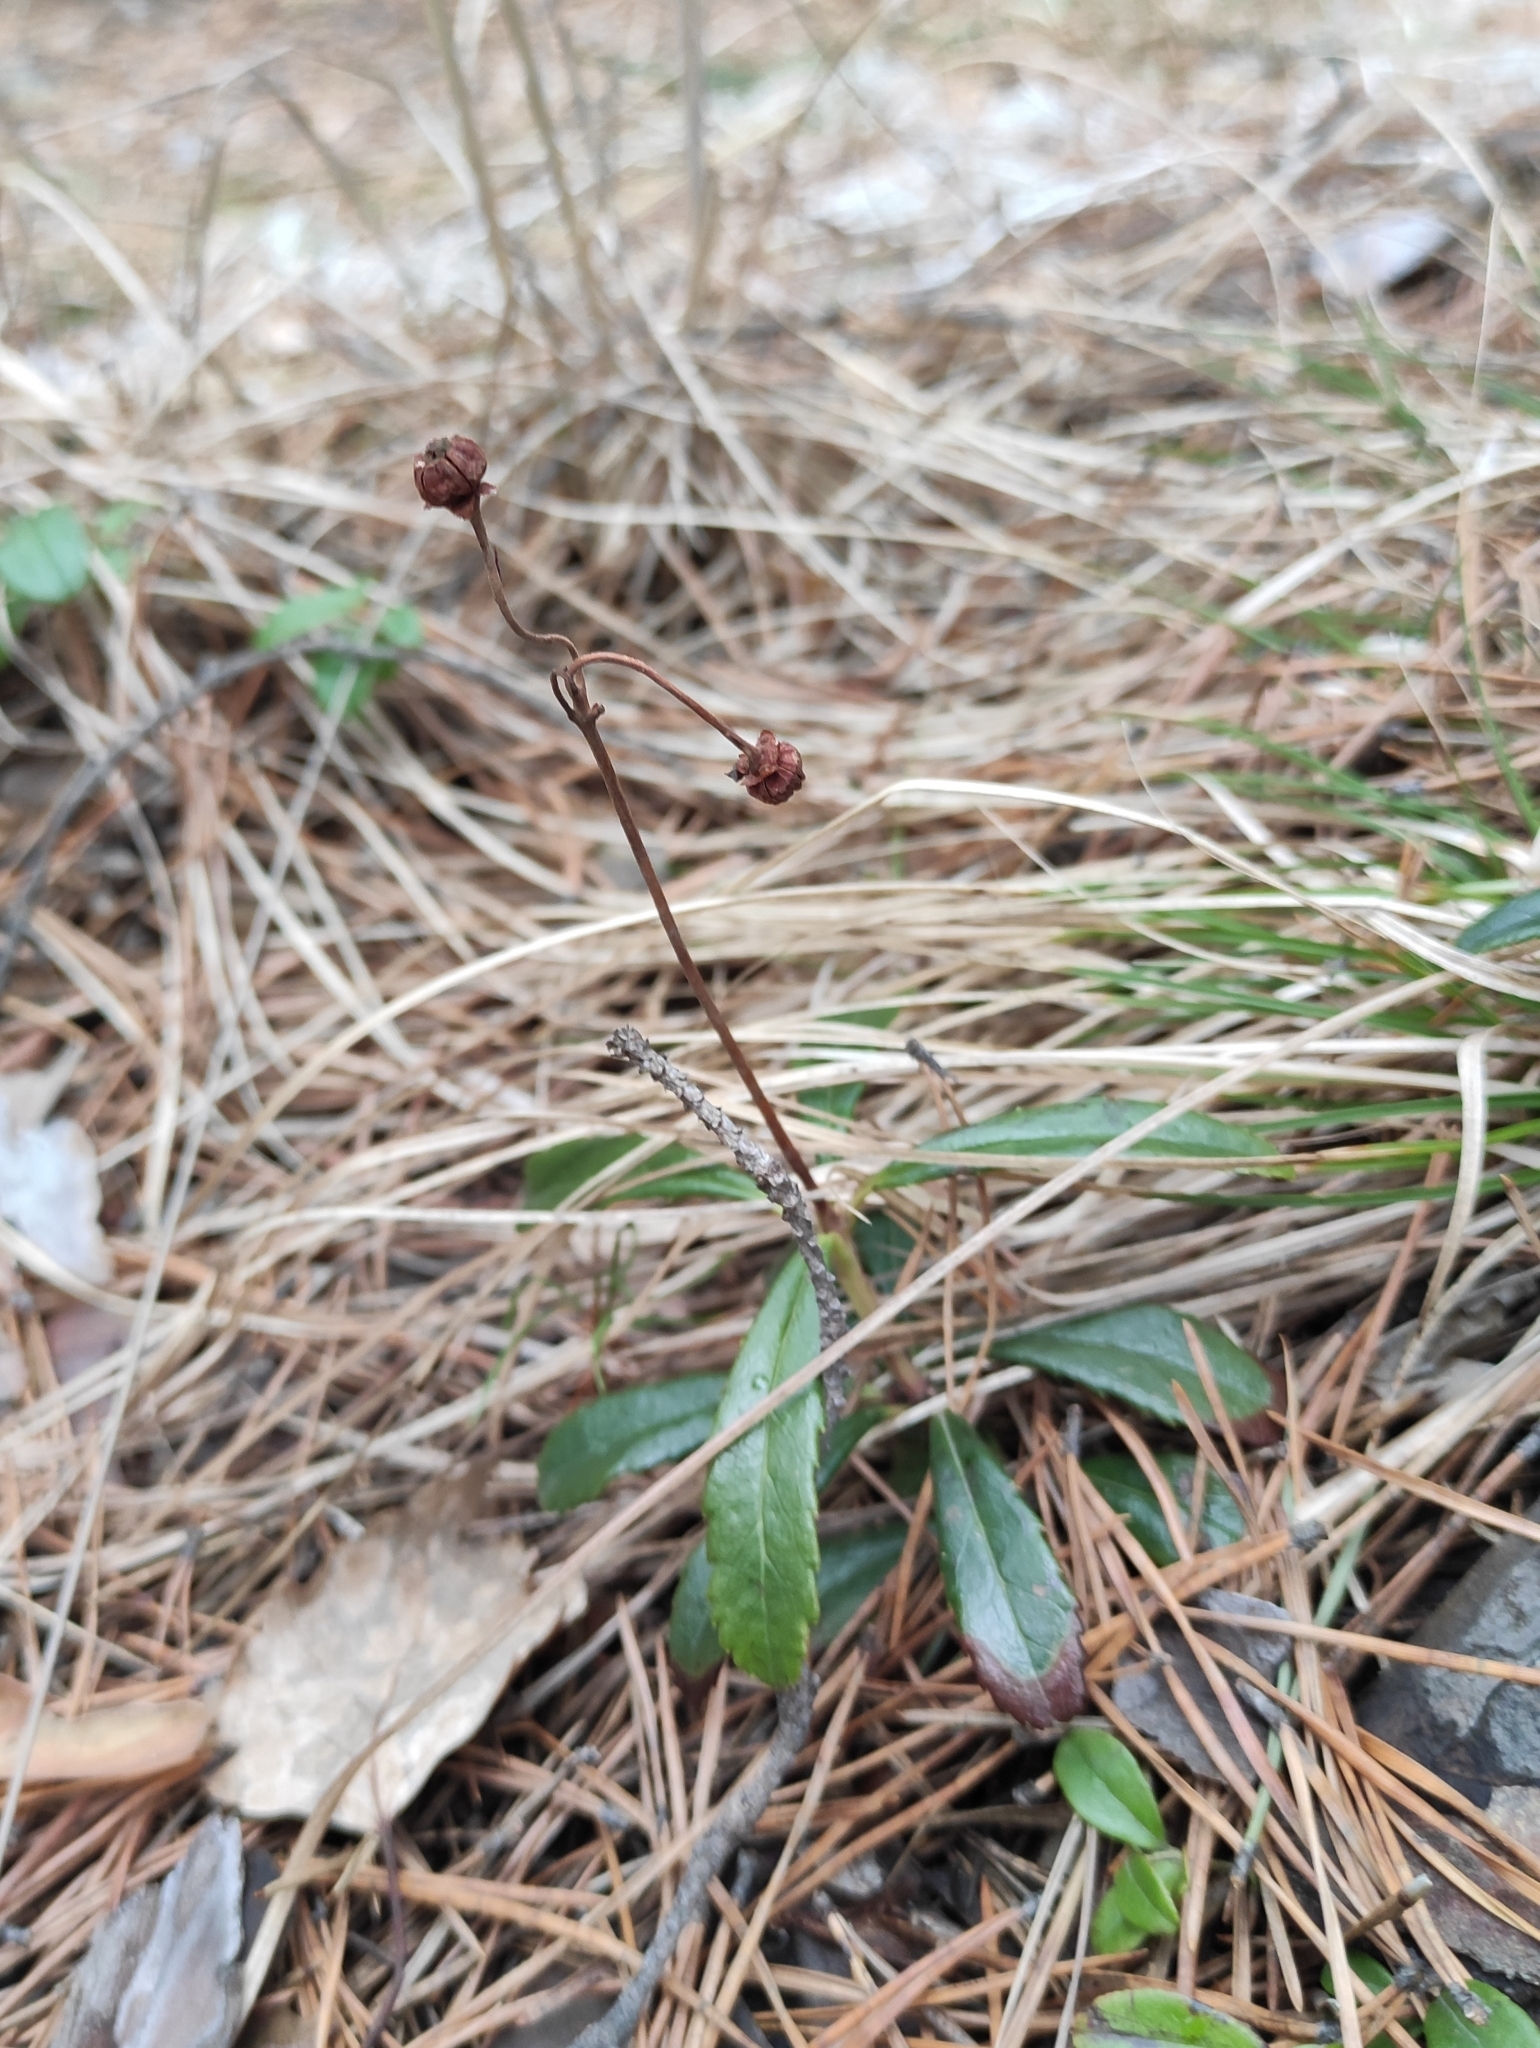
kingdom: Plantae
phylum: Tracheophyta
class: Magnoliopsida
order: Ericales
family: Ericaceae
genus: Chimaphila
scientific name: Chimaphila umbellata
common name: Pipsissewa
